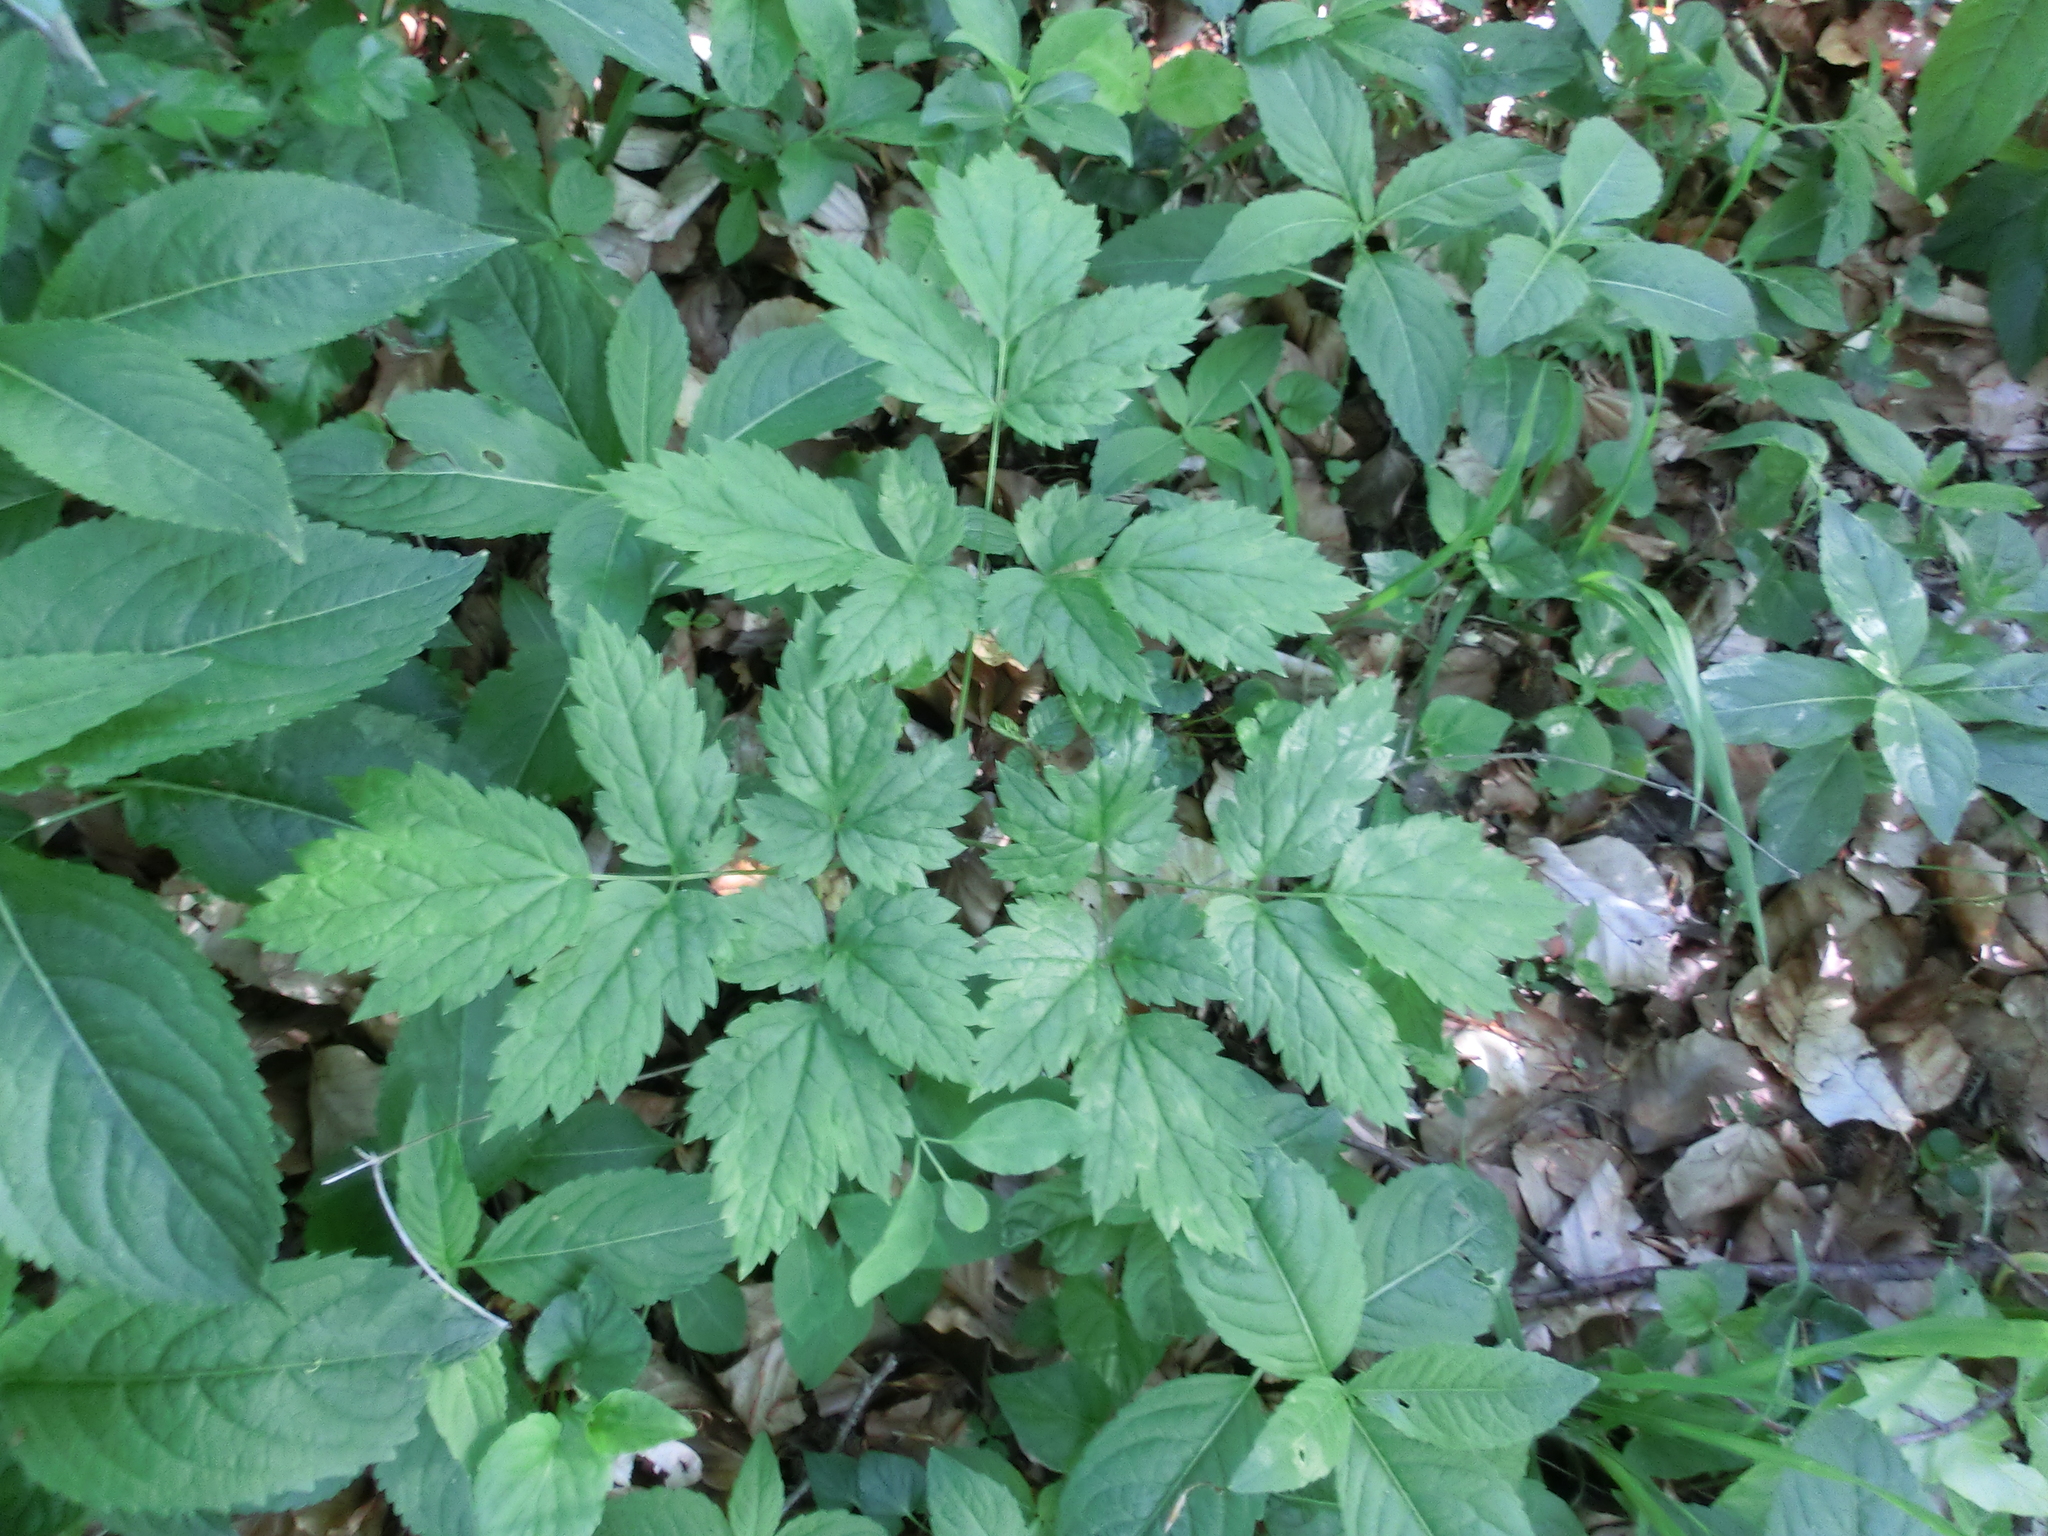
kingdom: Plantae
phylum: Tracheophyta
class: Magnoliopsida
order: Ranunculales
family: Ranunculaceae
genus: Actaea
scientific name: Actaea spicata
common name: Baneberry
